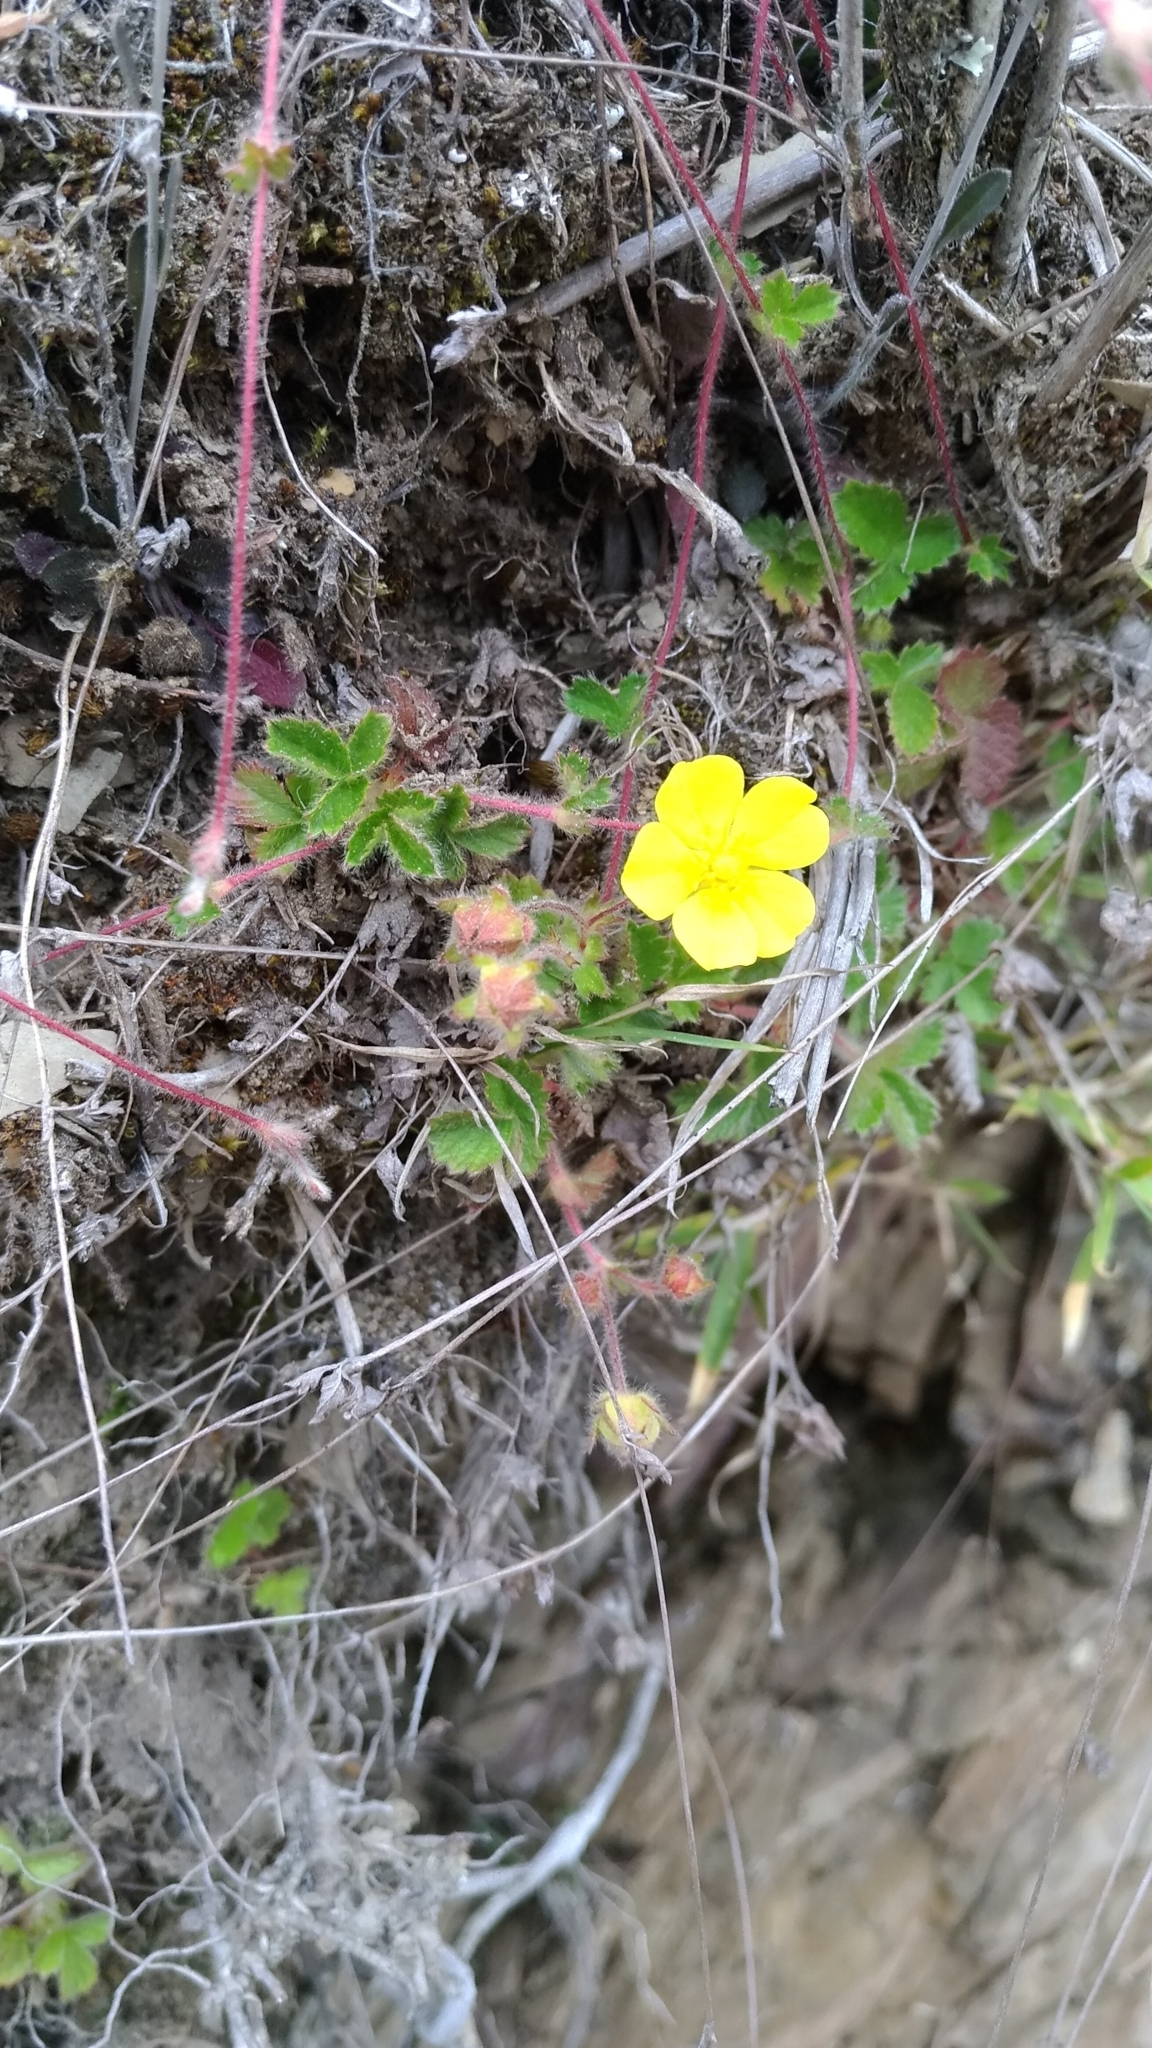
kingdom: Plantae
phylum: Tracheophyta
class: Magnoliopsida
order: Rosales
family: Rosaceae
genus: Potentilla
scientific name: Potentilla matsumurae
